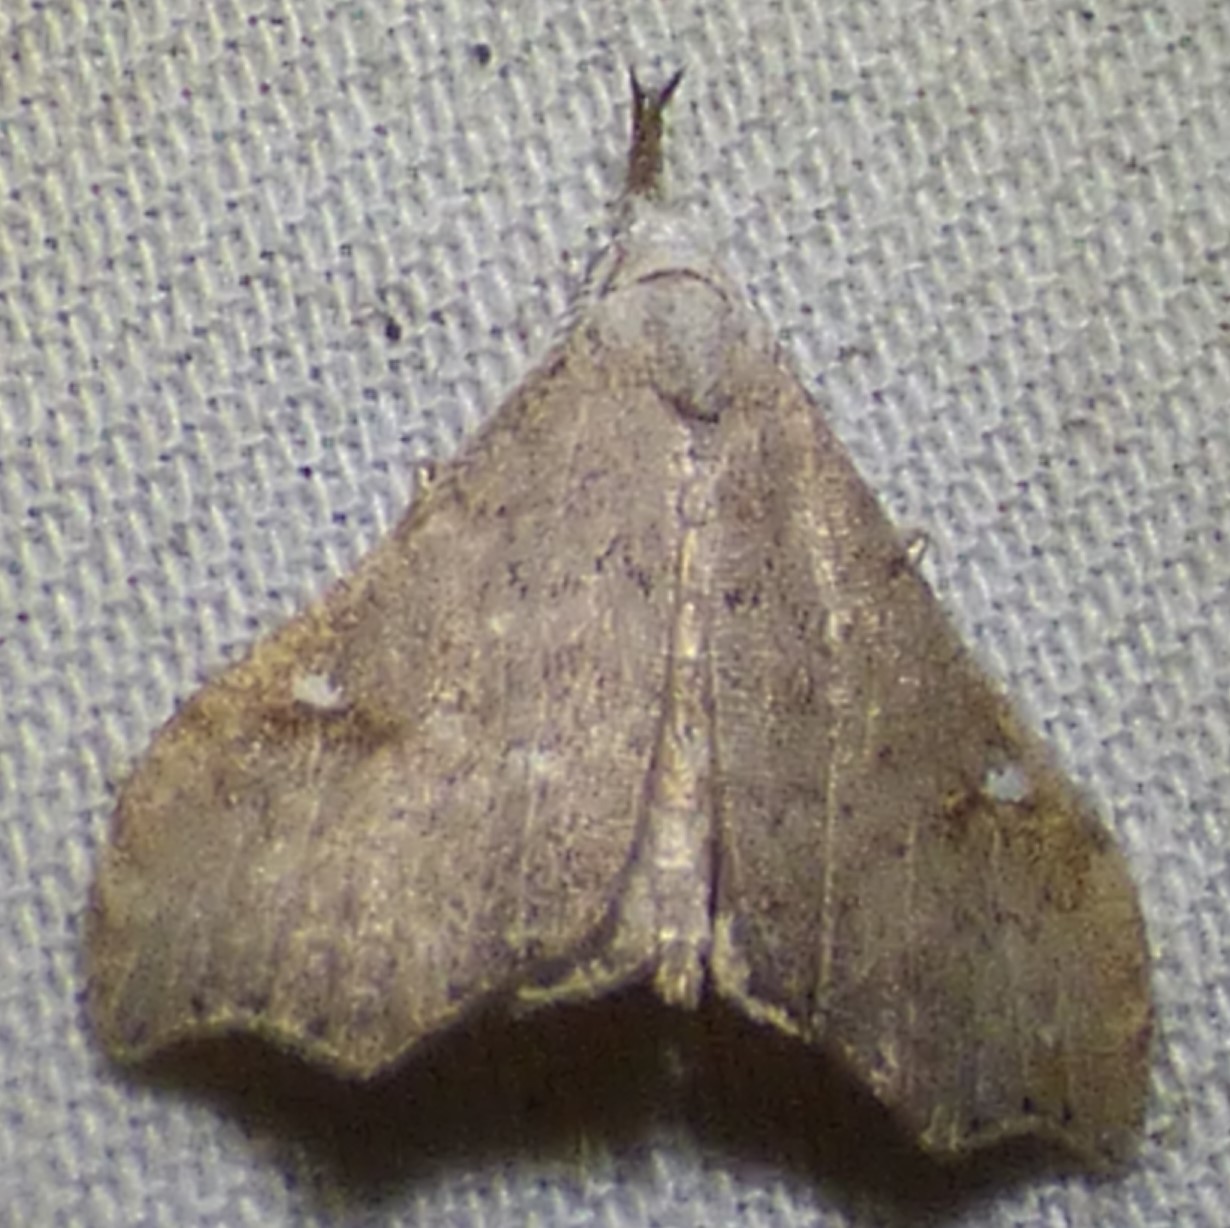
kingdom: Animalia
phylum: Arthropoda
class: Insecta
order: Lepidoptera
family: Erebidae
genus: Redectis
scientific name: Redectis vitrea
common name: White-spotted redectis
